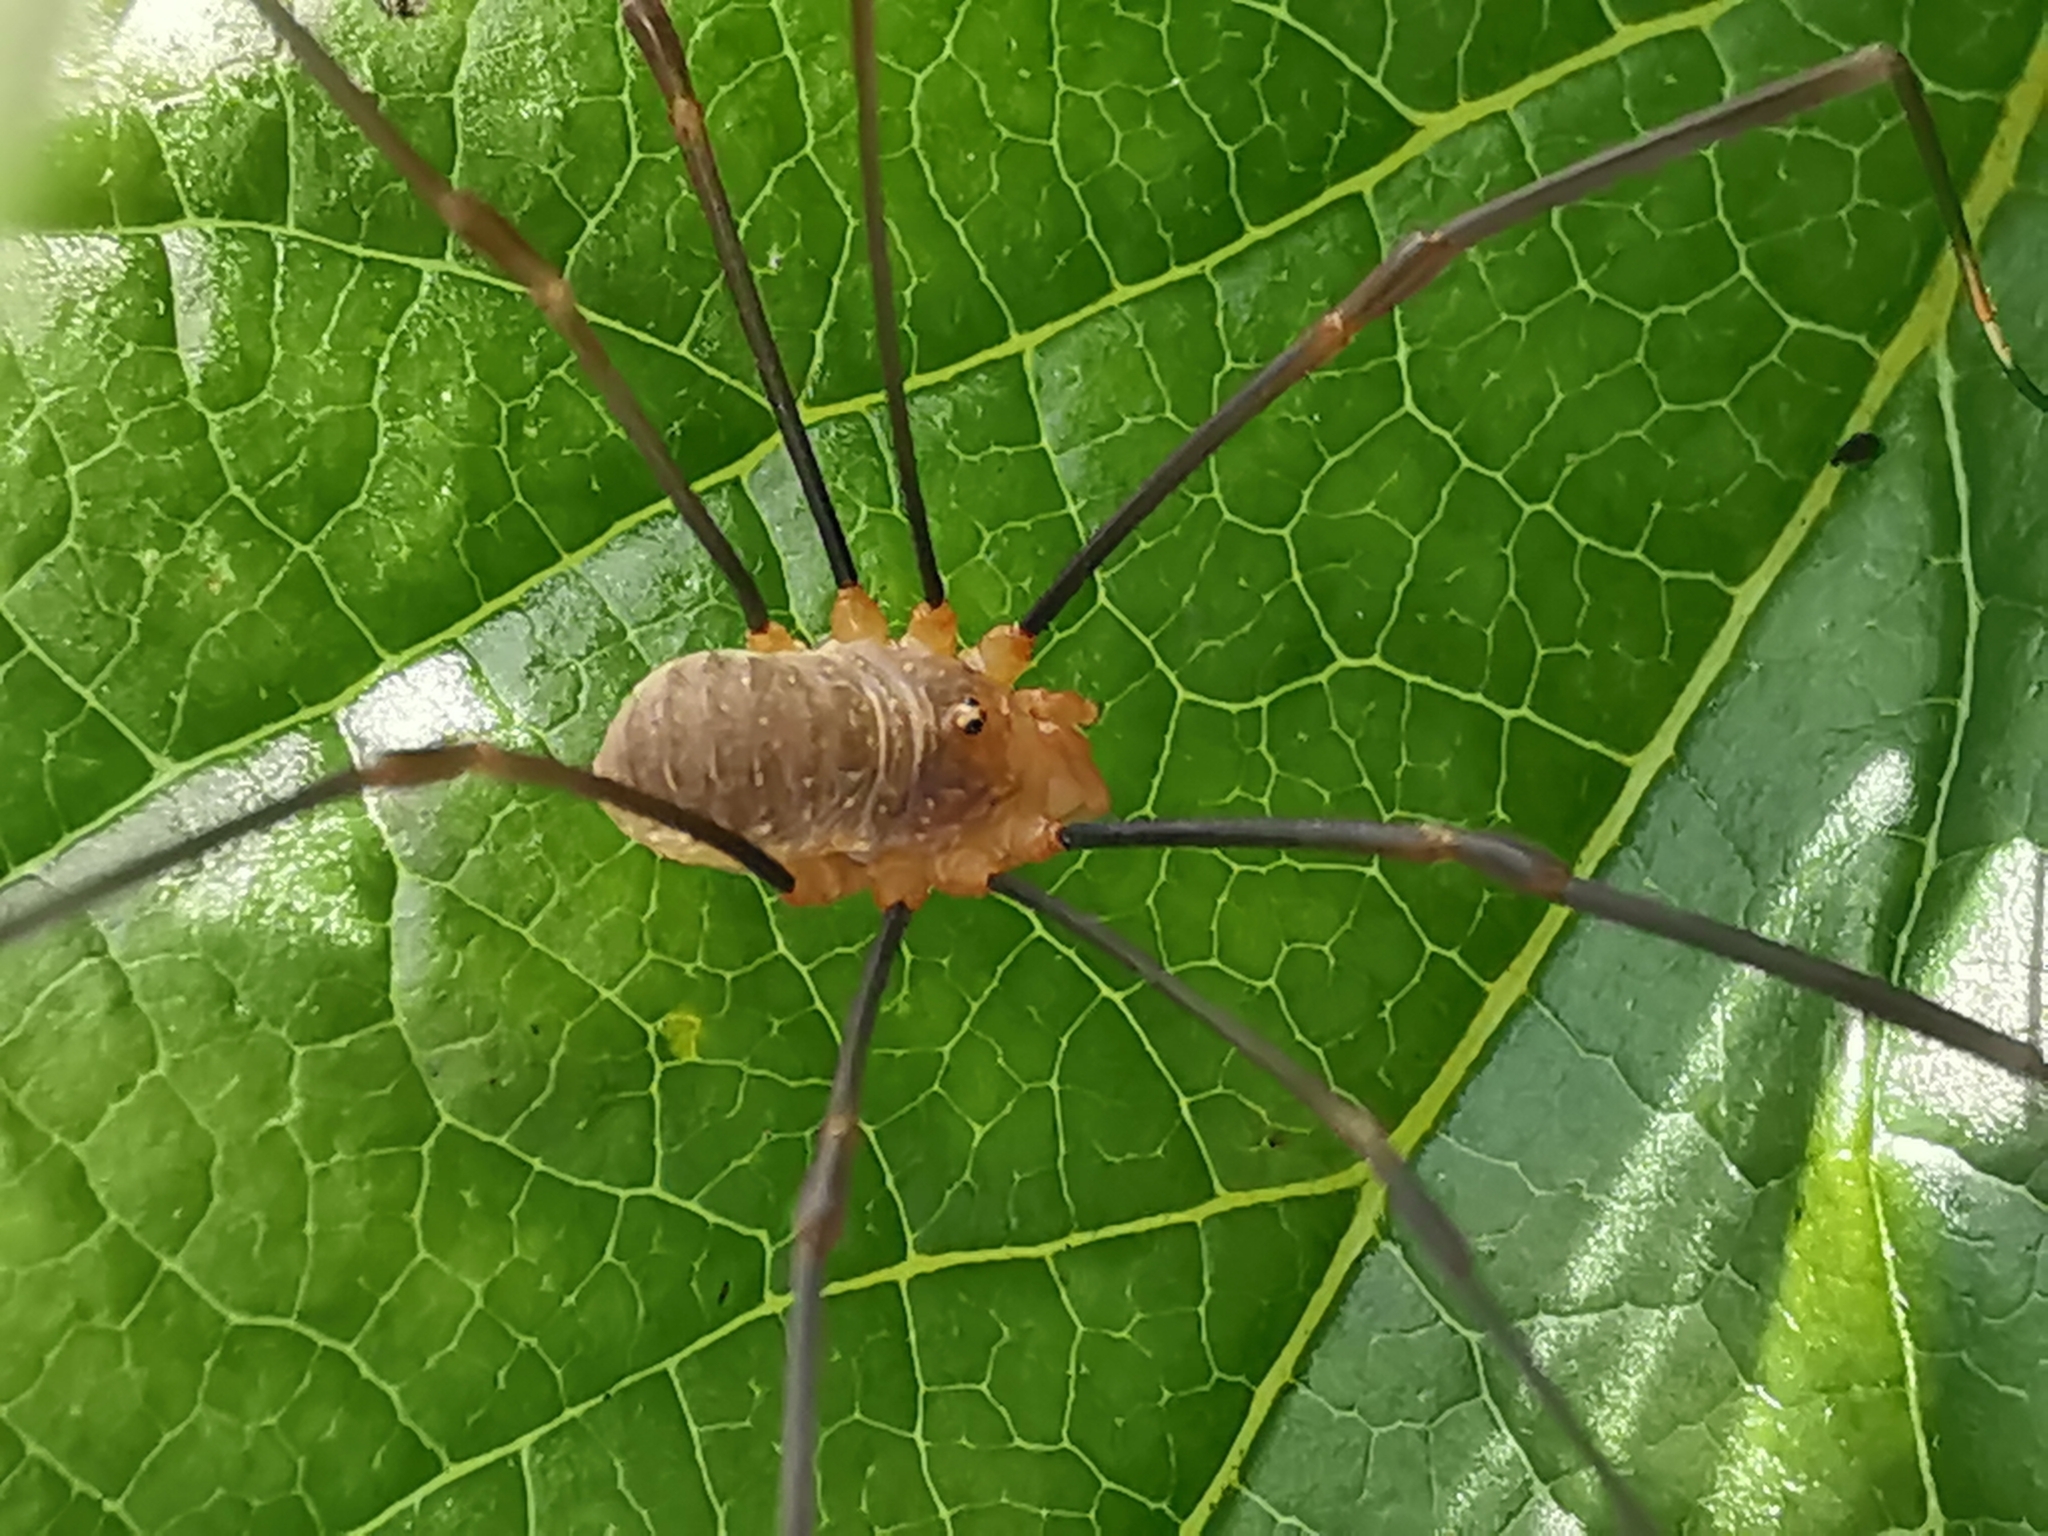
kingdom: Animalia
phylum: Arthropoda
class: Arachnida
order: Opiliones
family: Phalangiidae
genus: Opilio
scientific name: Opilio canestrinii
